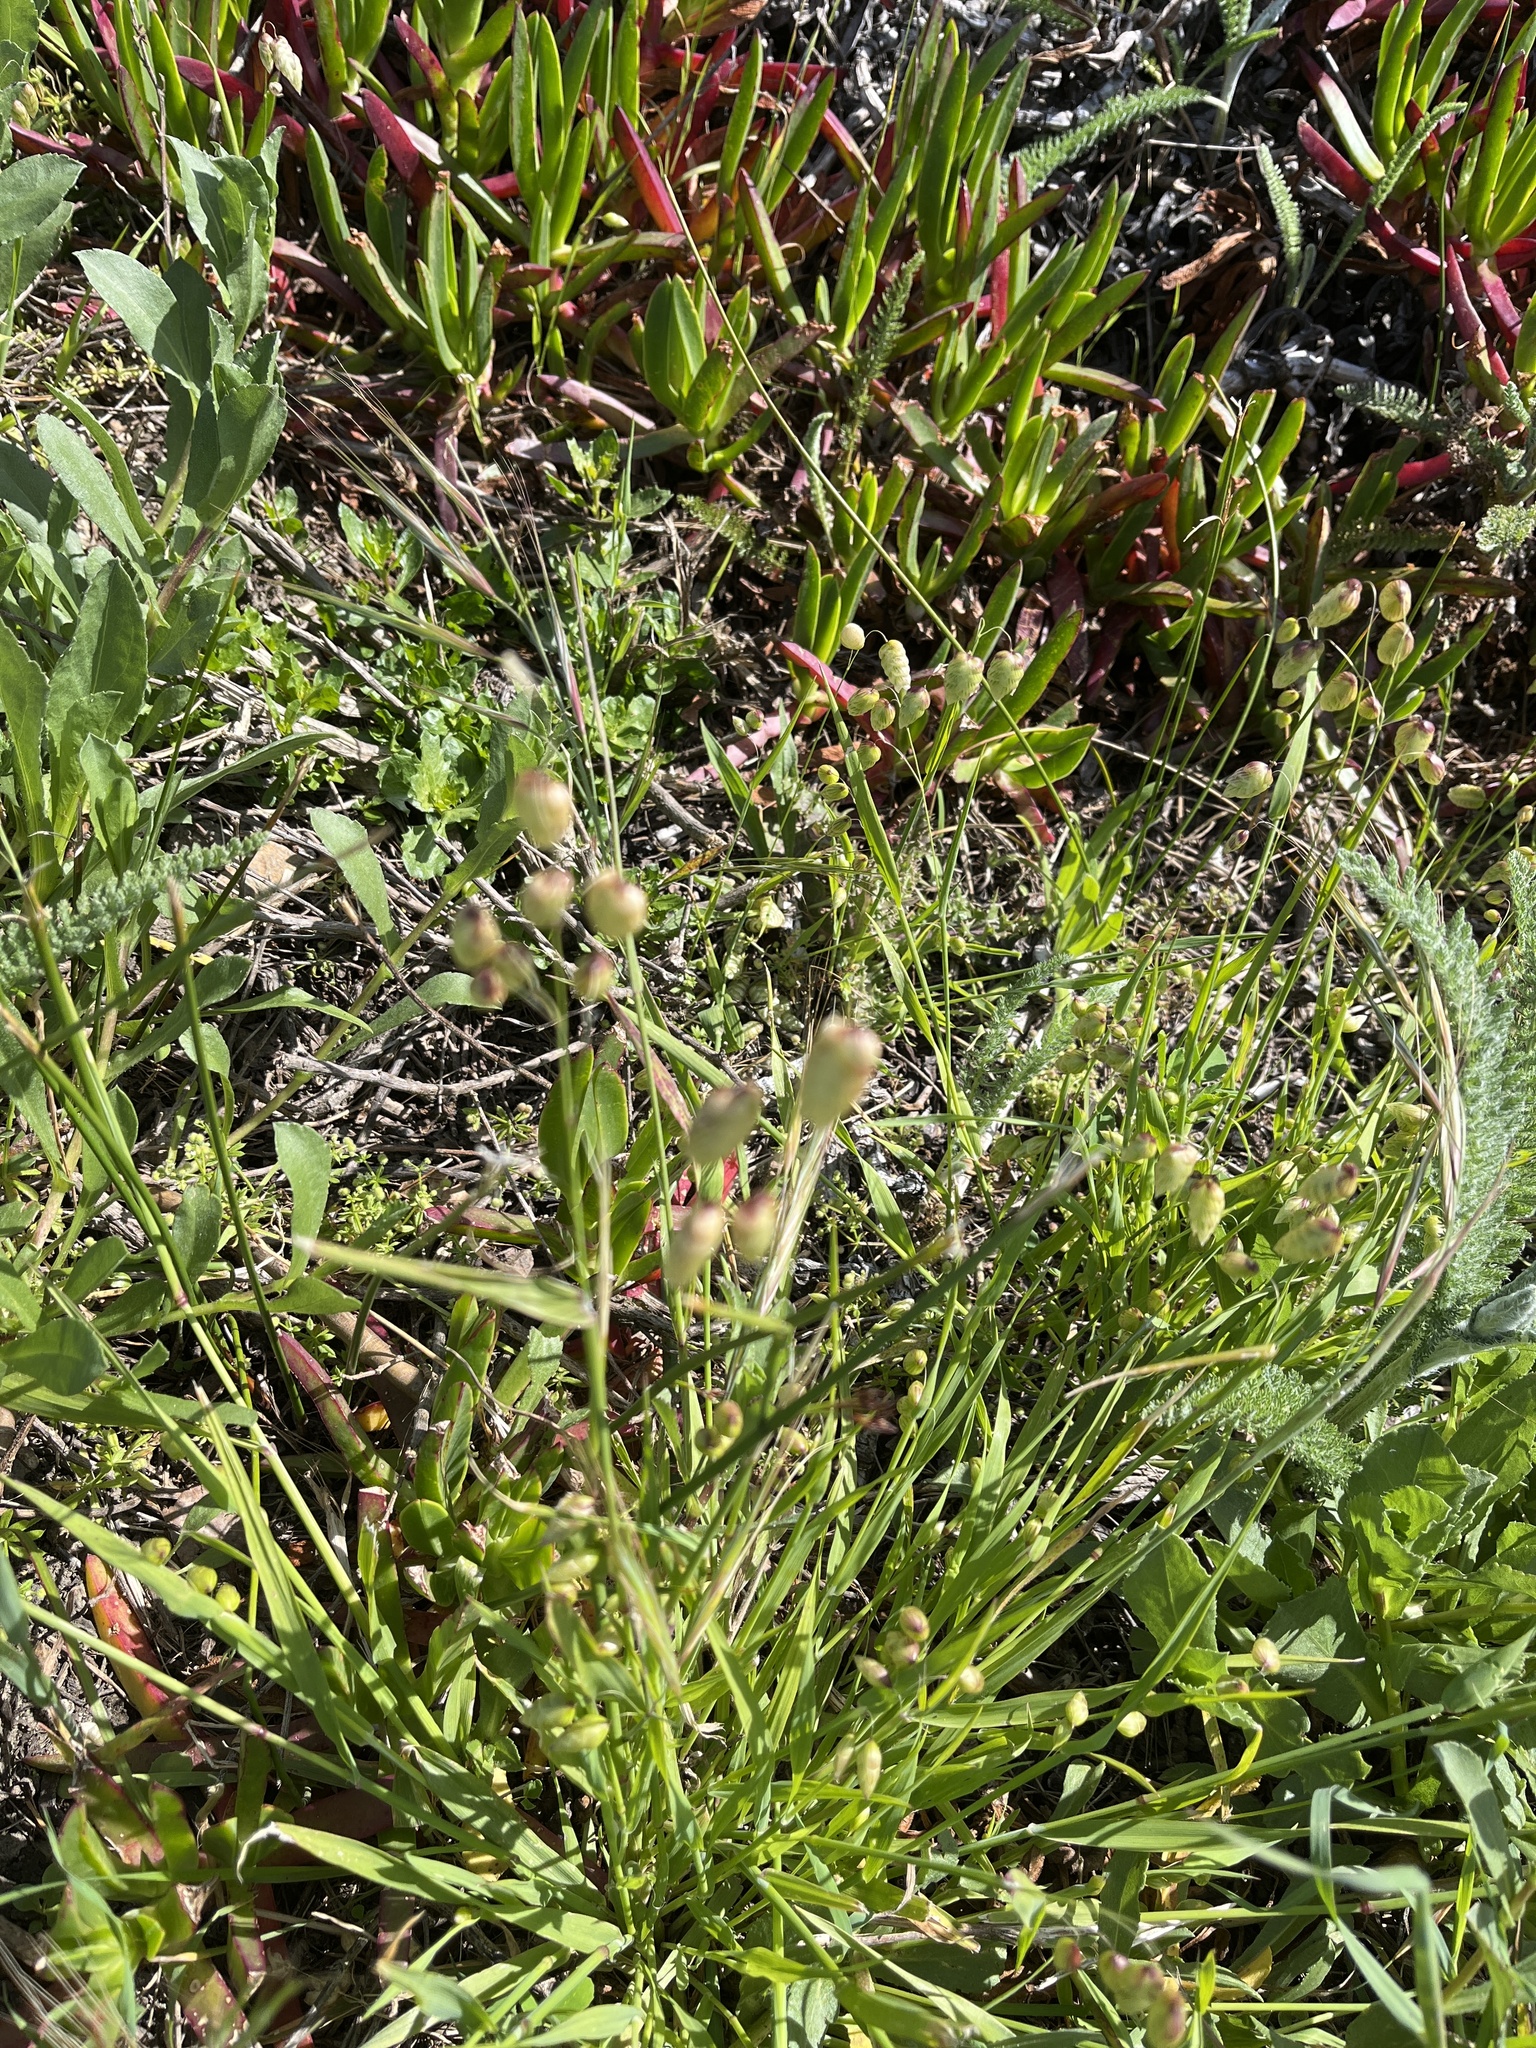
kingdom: Plantae
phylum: Tracheophyta
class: Liliopsida
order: Poales
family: Poaceae
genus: Briza
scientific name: Briza maxima
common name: Big quakinggrass
